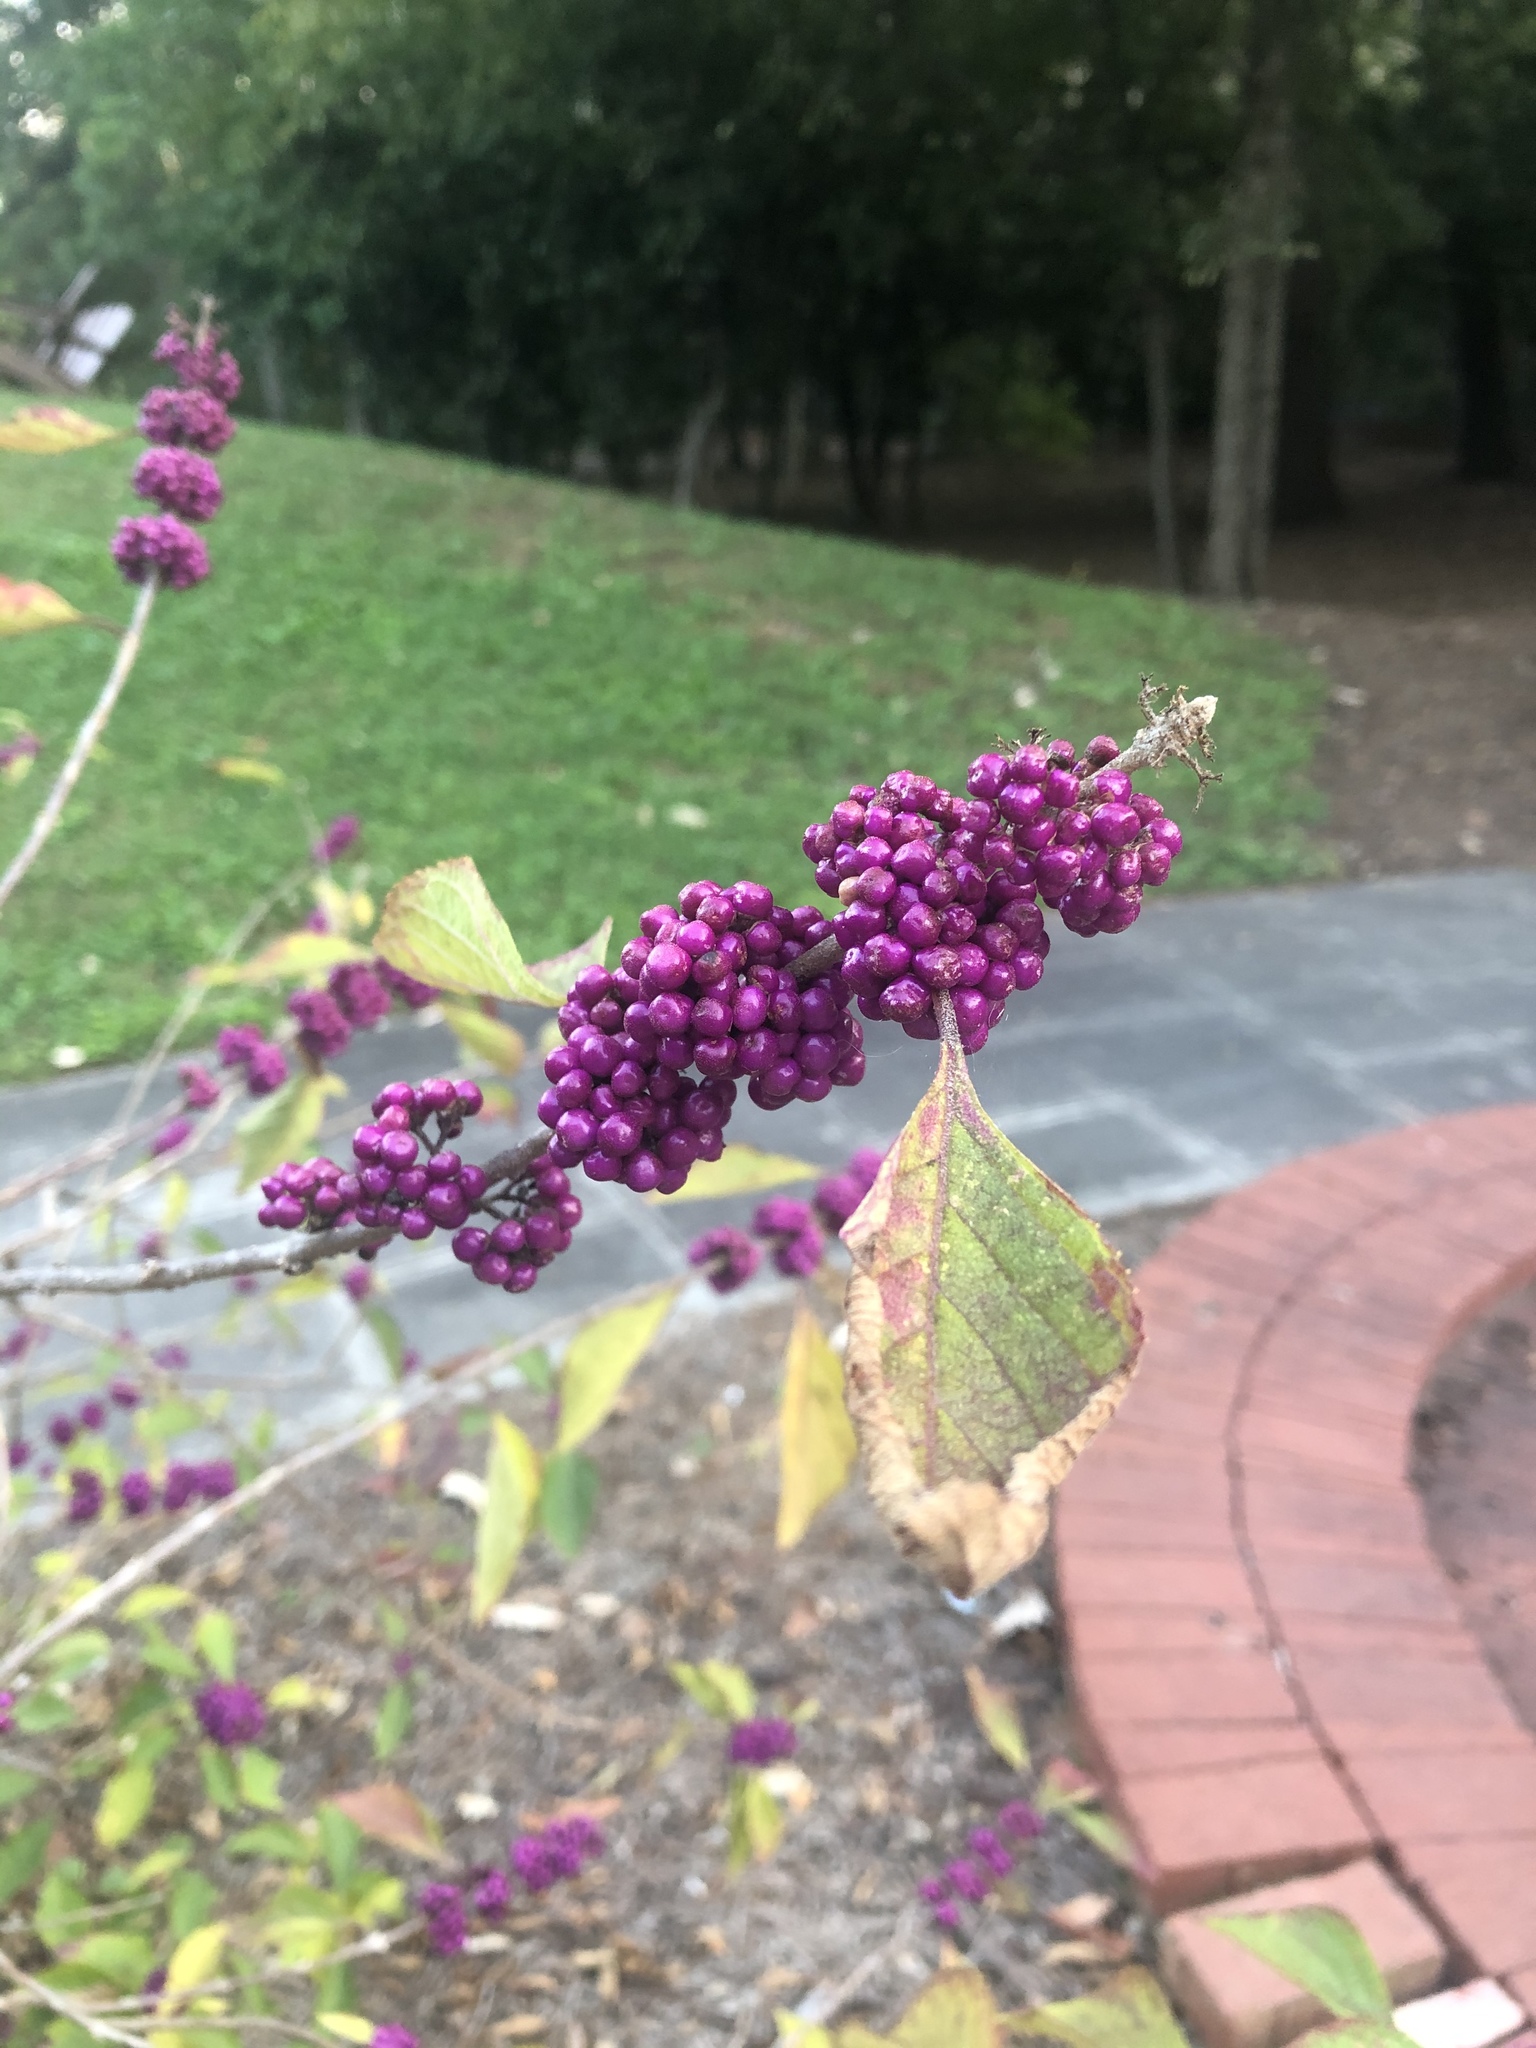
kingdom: Plantae
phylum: Tracheophyta
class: Magnoliopsida
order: Lamiales
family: Lamiaceae
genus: Callicarpa
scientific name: Callicarpa americana
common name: American beautyberry
